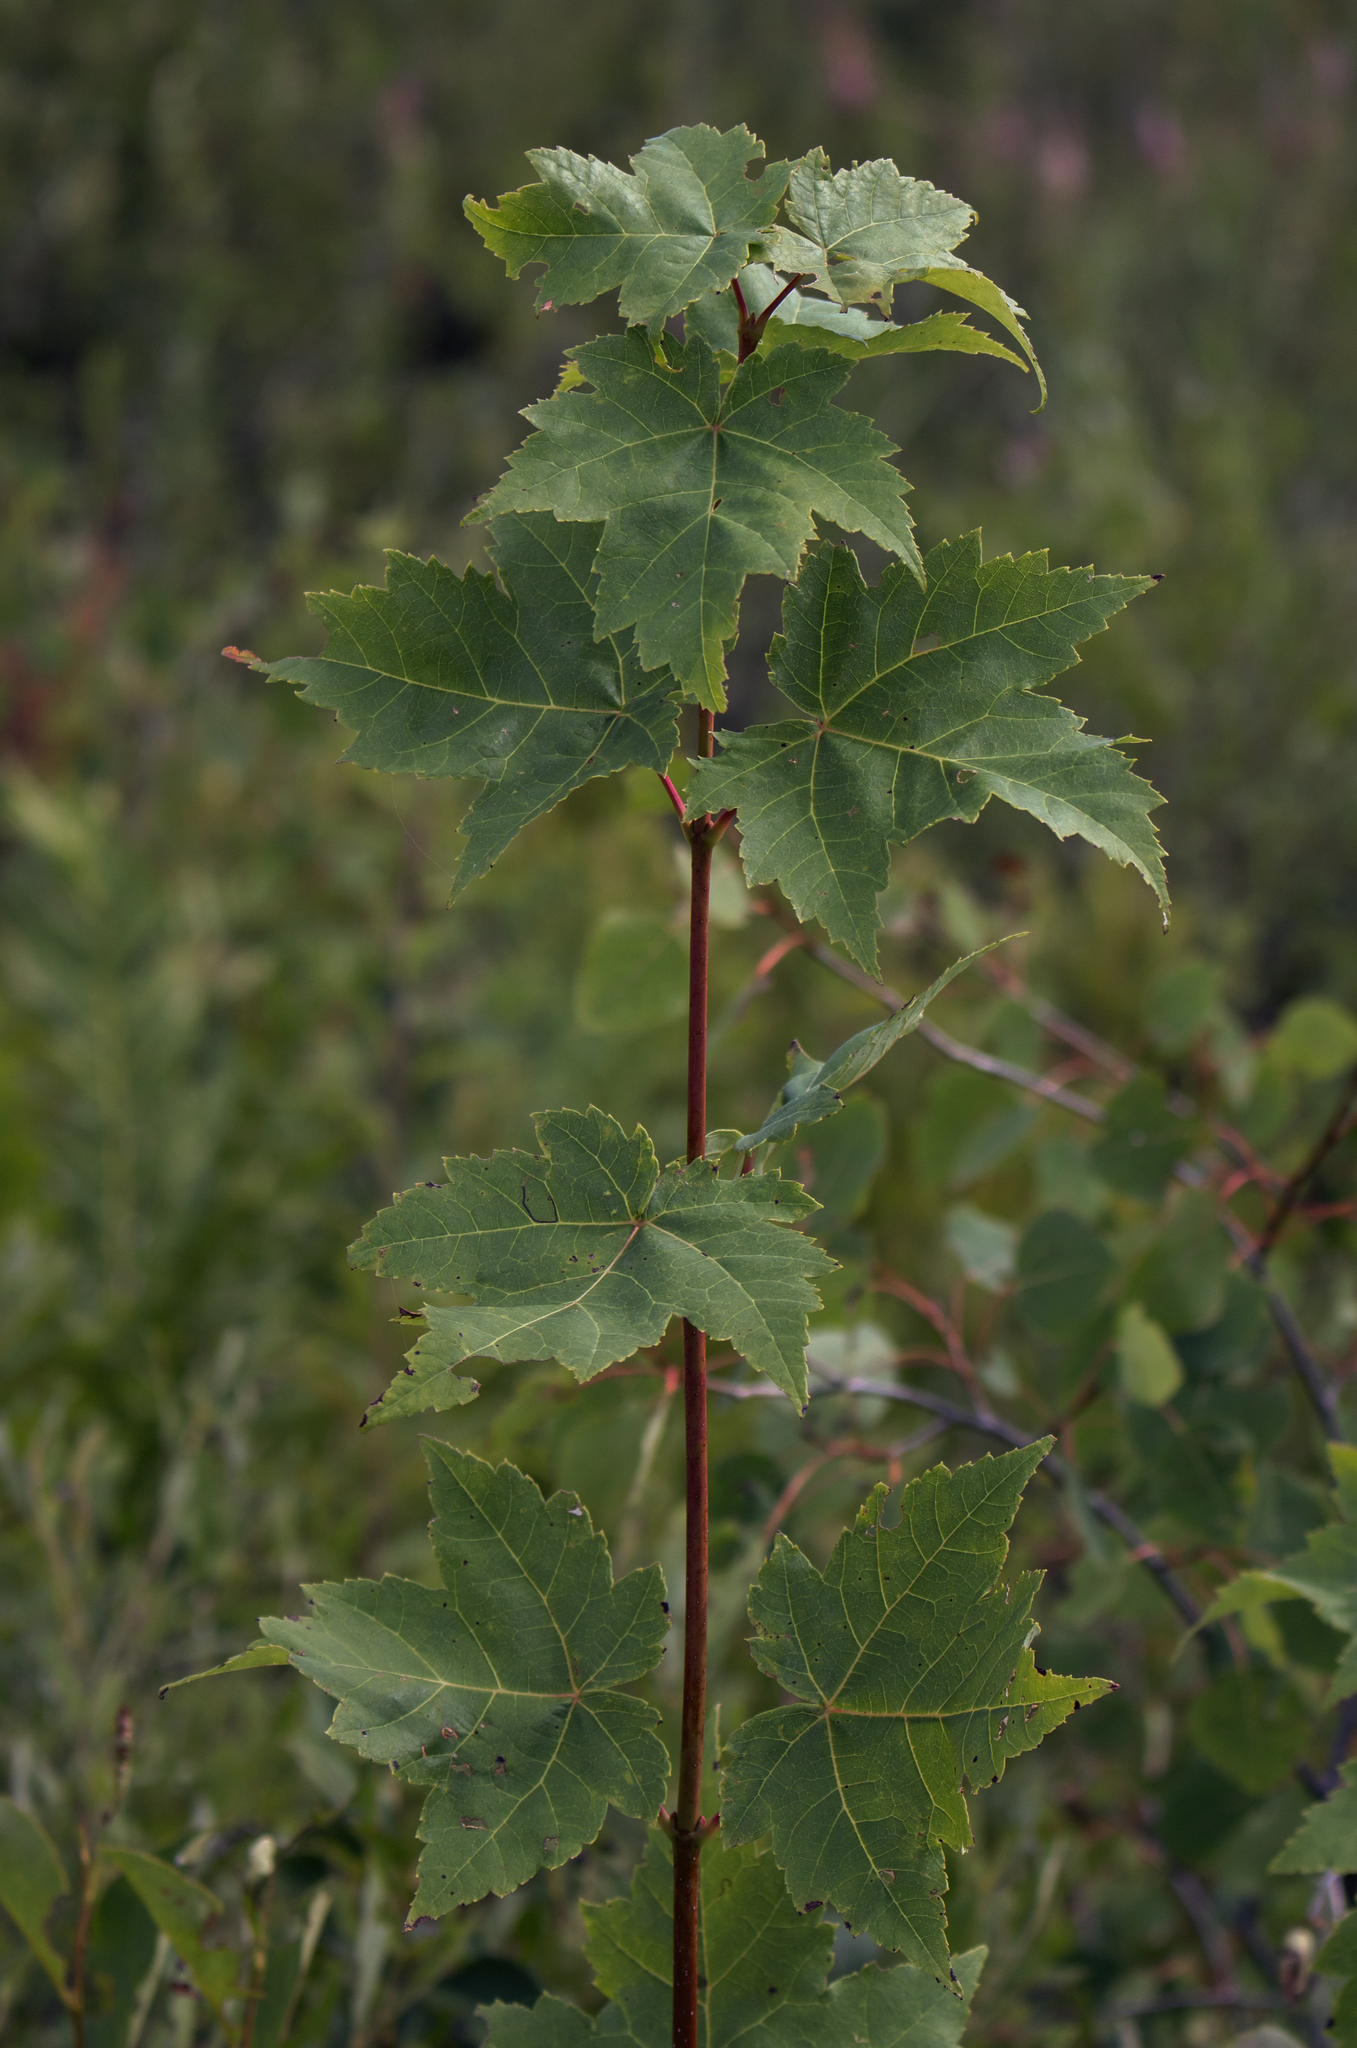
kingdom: Plantae
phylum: Tracheophyta
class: Magnoliopsida
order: Sapindales
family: Sapindaceae
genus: Acer
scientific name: Acer rubrum
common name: Red maple
